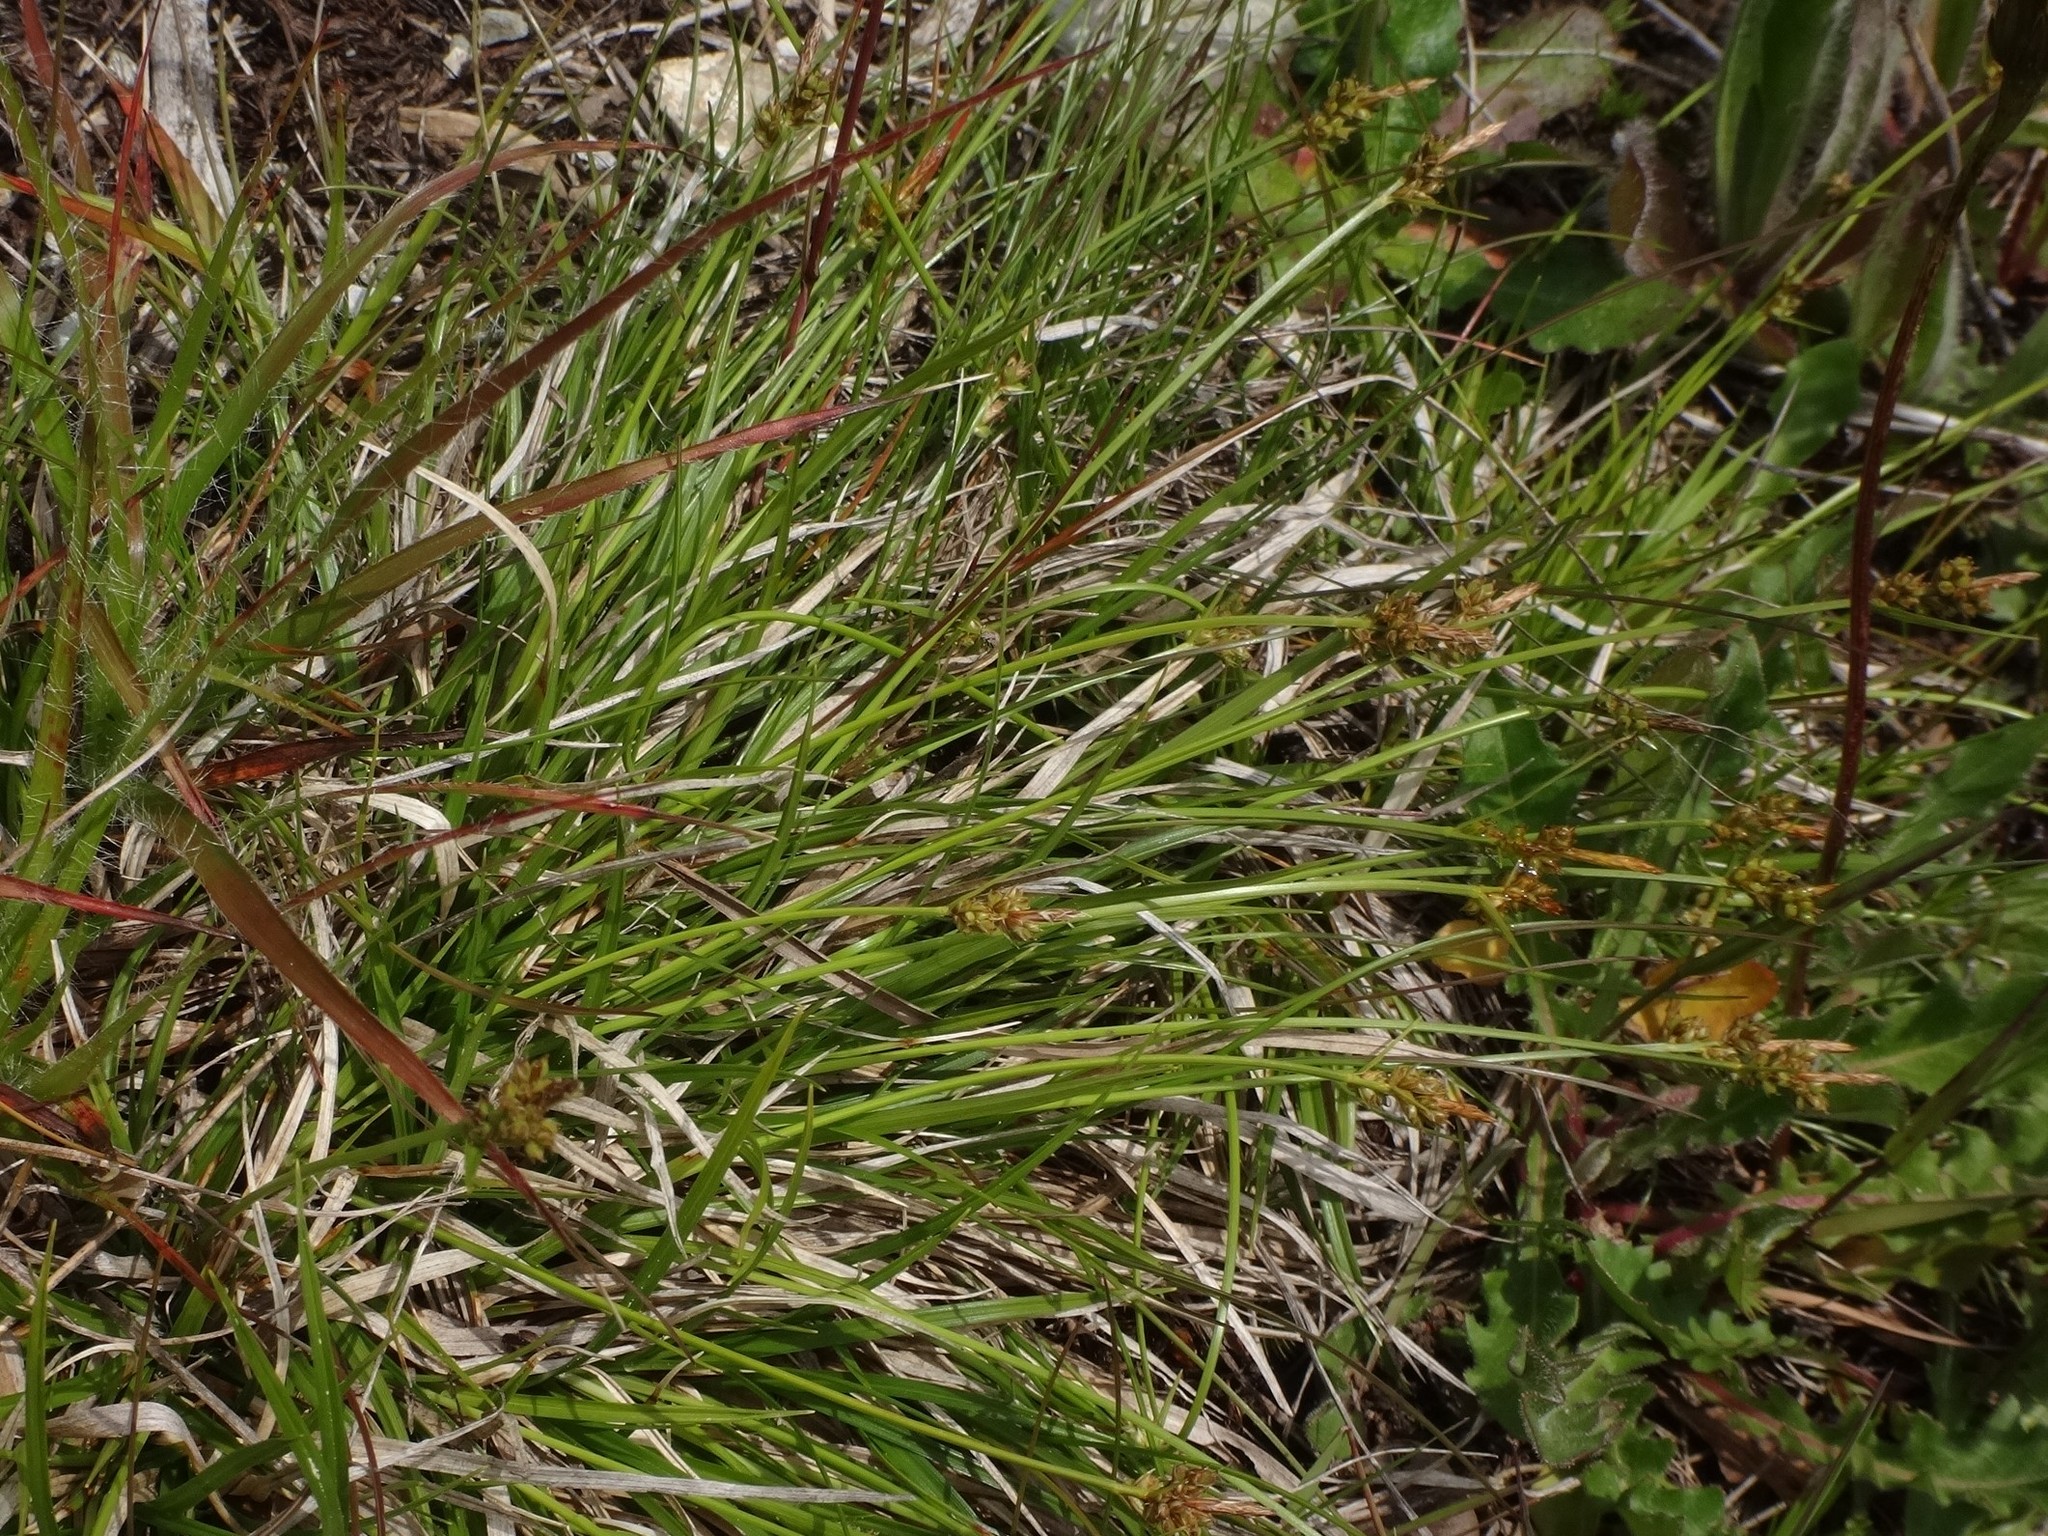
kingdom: Plantae
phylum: Tracheophyta
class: Liliopsida
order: Poales
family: Cyperaceae
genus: Carex
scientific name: Carex pilulifera
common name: Pill sedge
